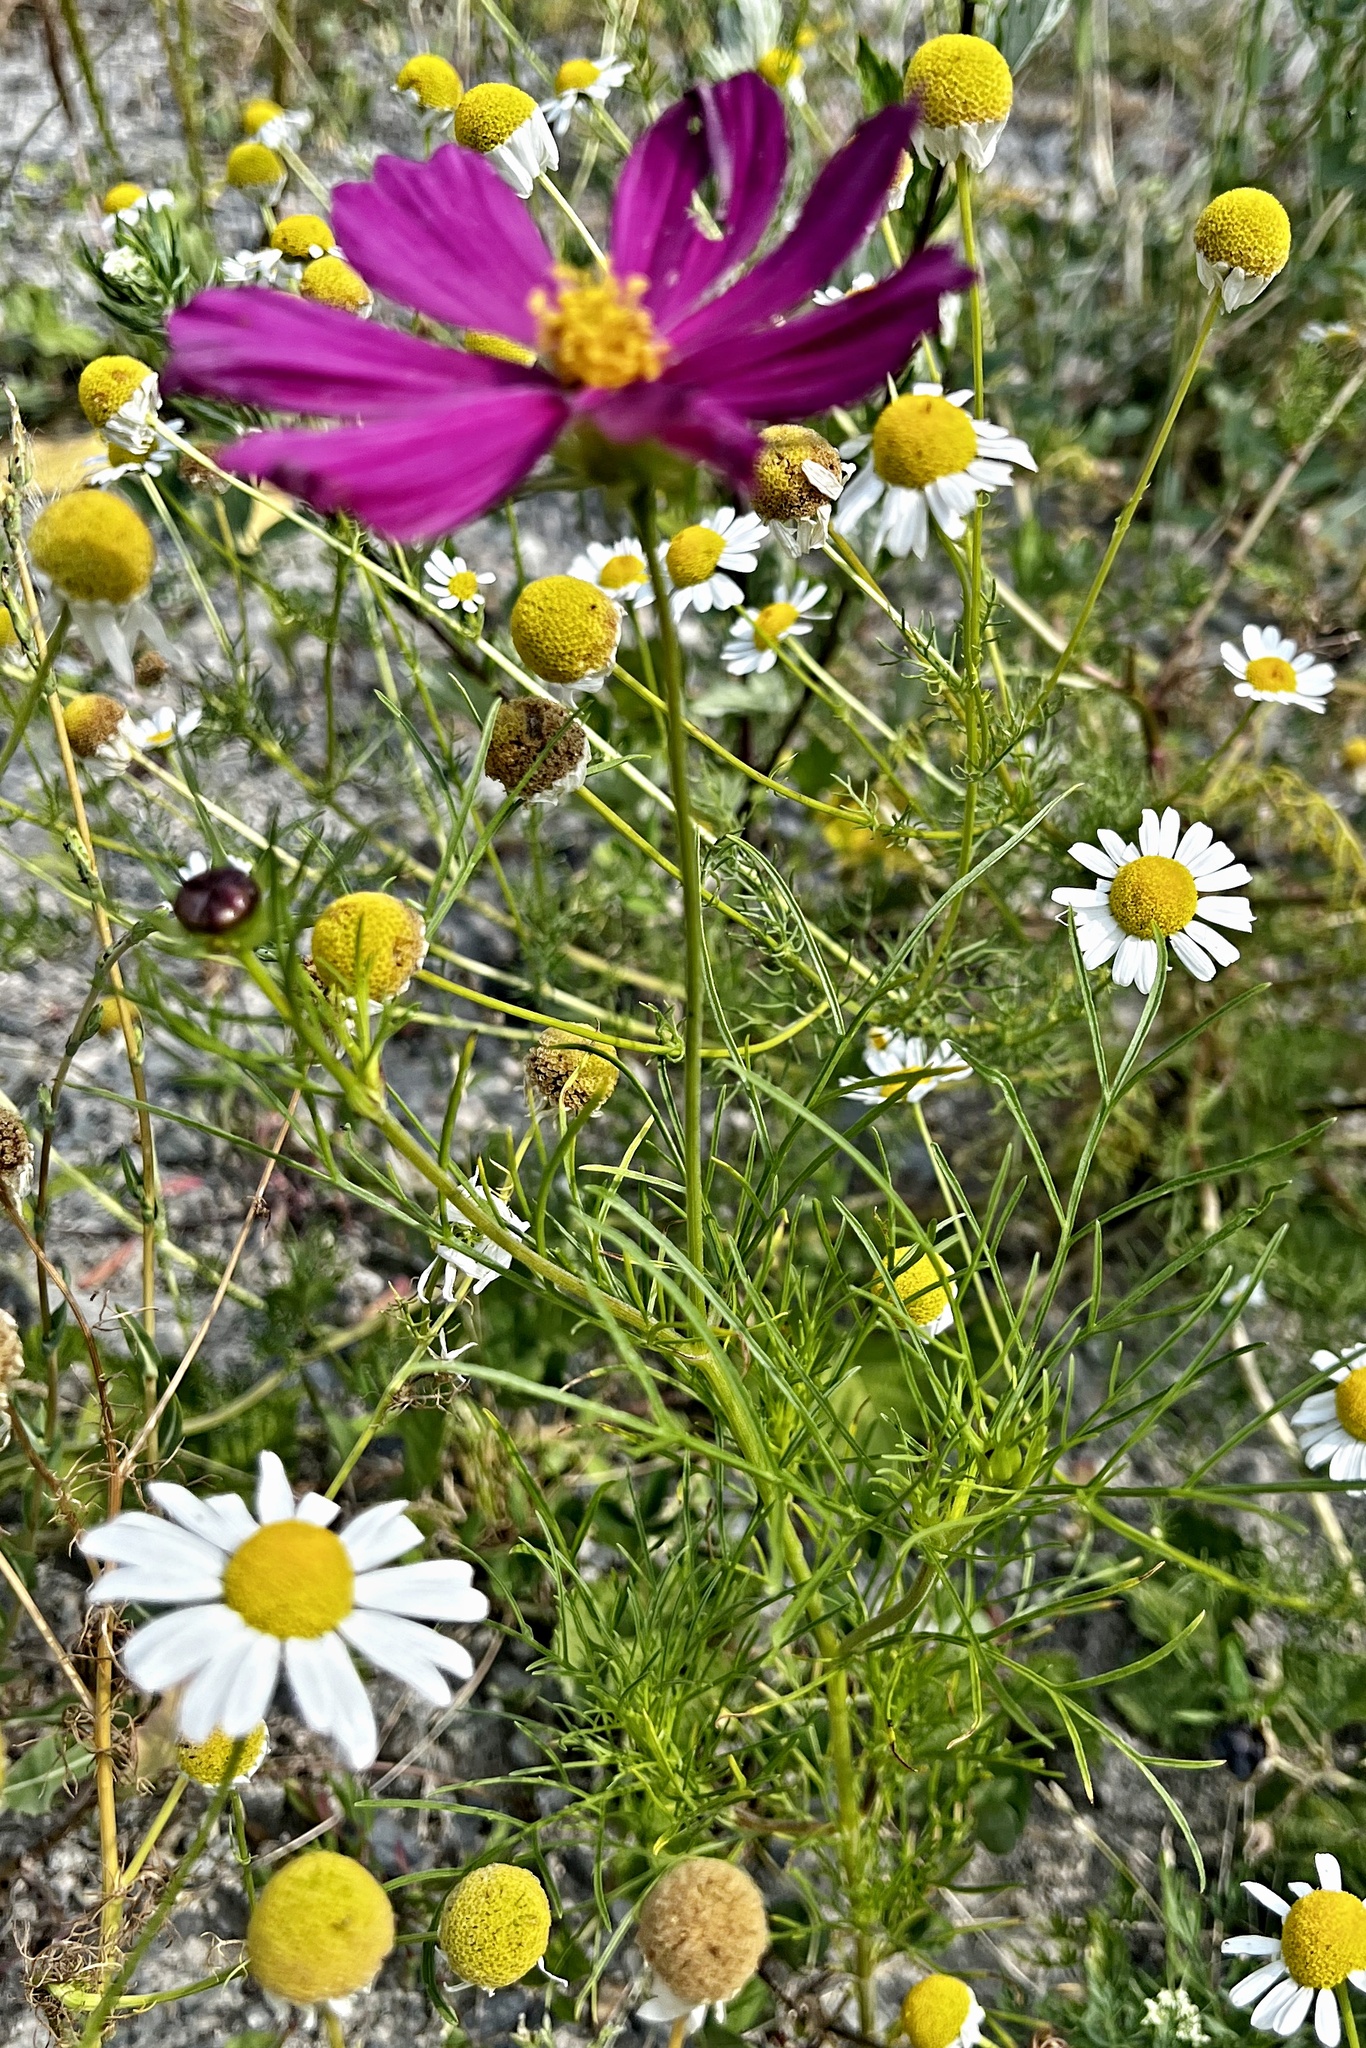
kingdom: Plantae
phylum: Tracheophyta
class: Magnoliopsida
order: Asterales
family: Asteraceae
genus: Cosmos
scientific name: Cosmos bipinnatus
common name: Garden cosmos
